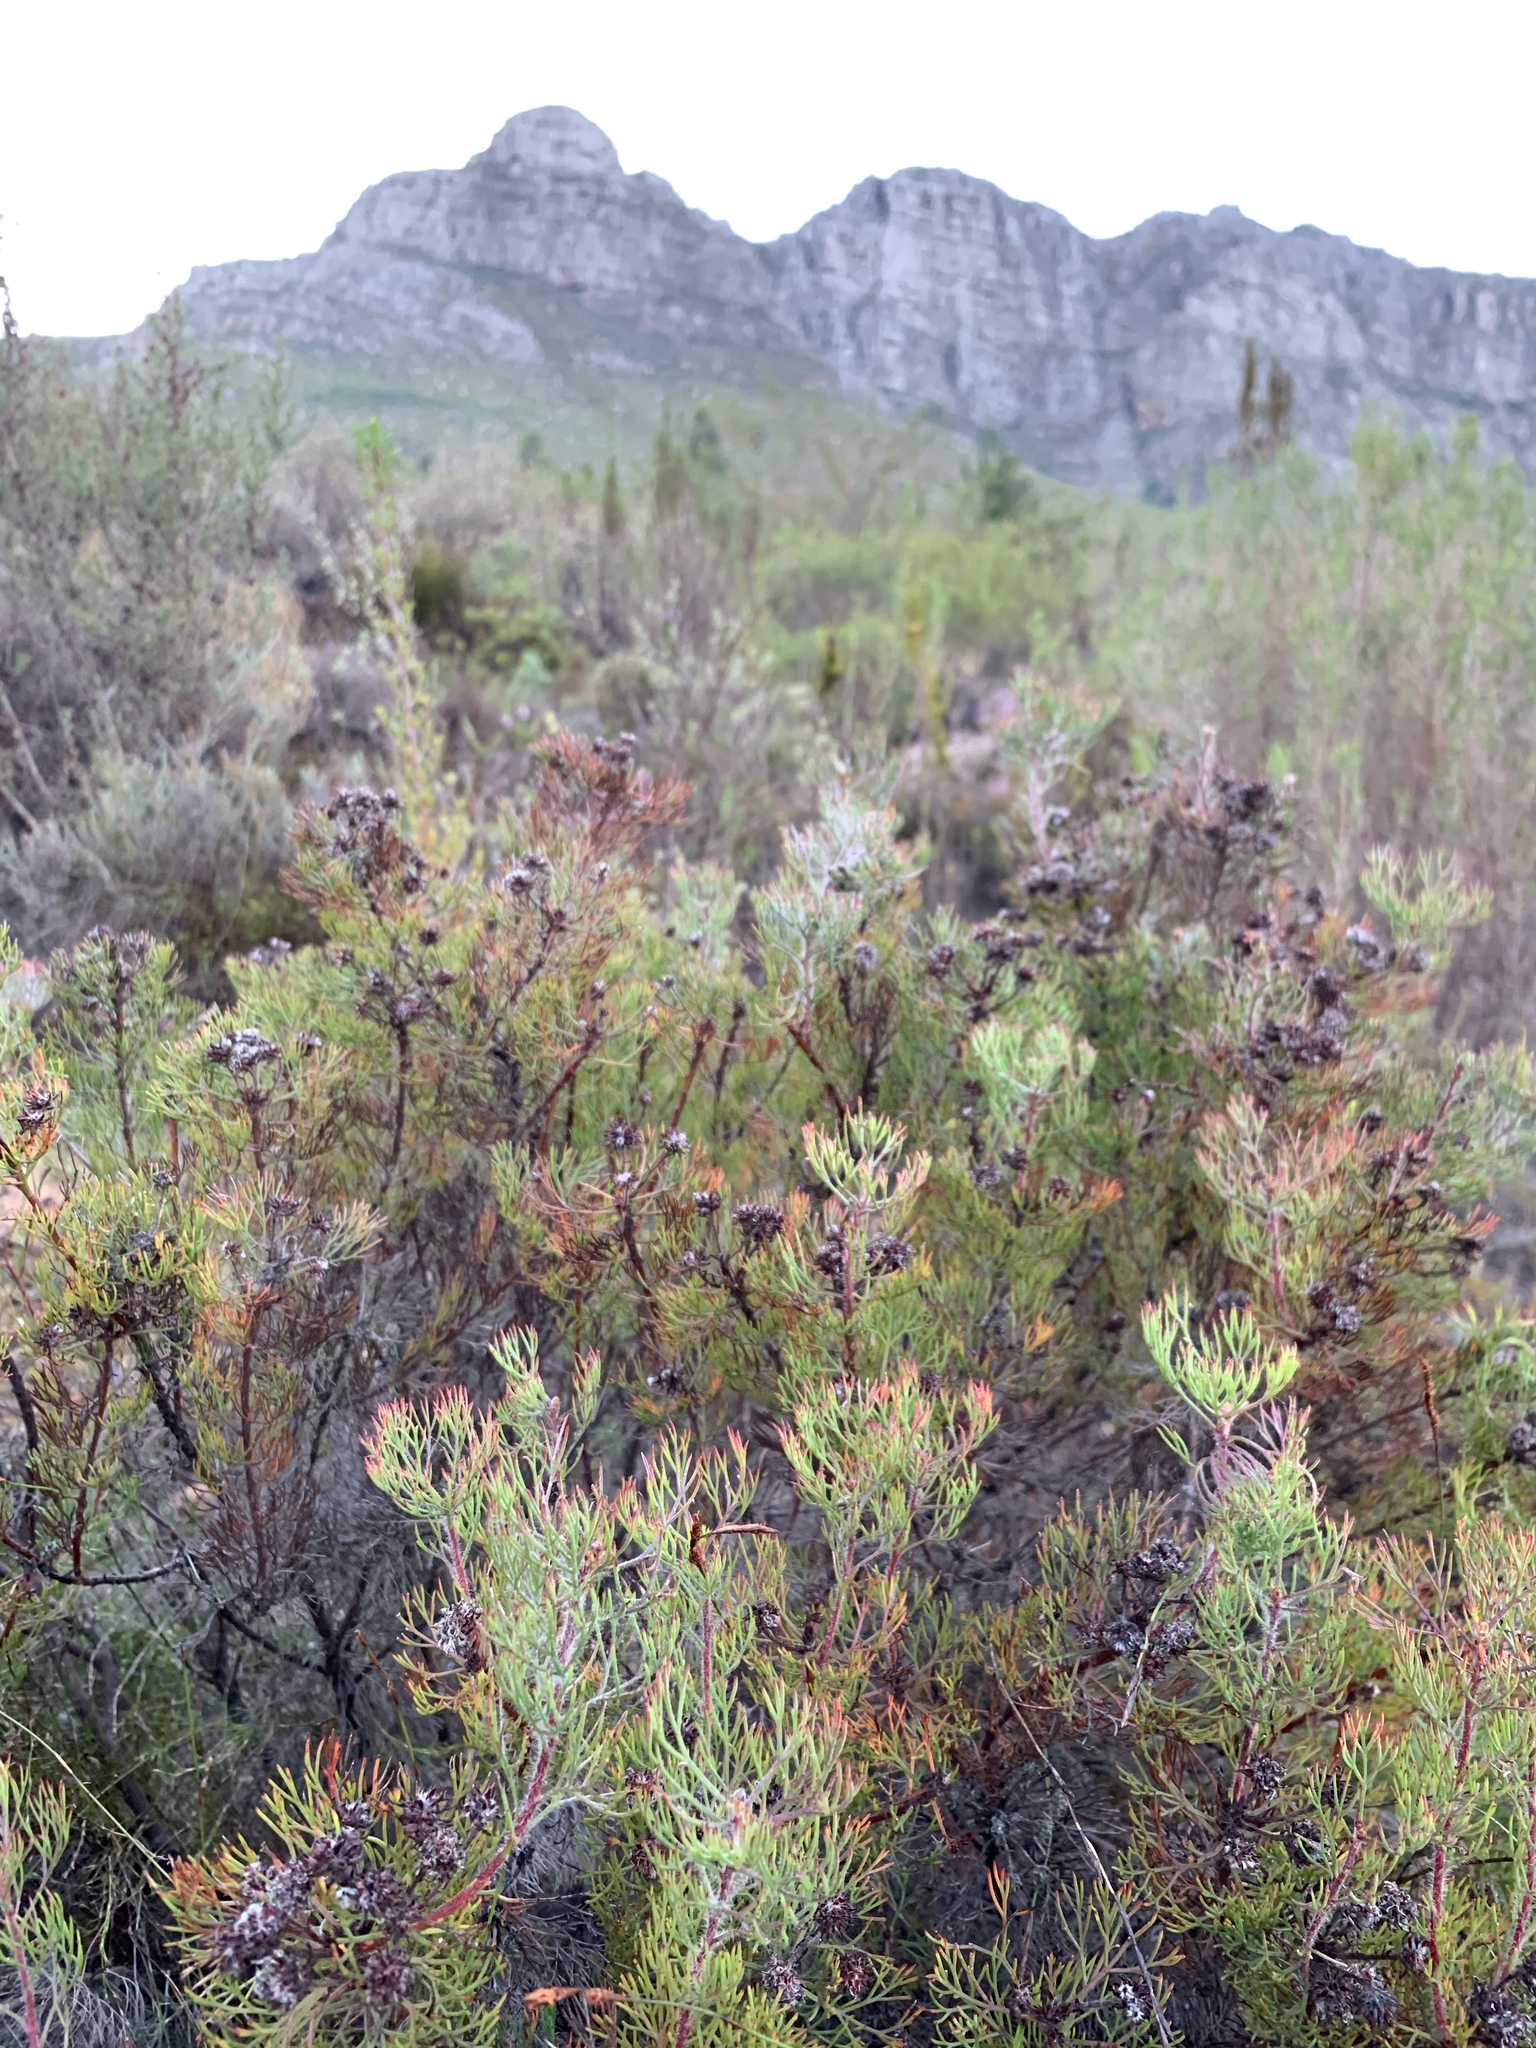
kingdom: Plantae
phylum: Tracheophyta
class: Magnoliopsida
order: Proteales
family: Proteaceae
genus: Serruria
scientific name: Serruria fasciflora
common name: Common pin spiderhead
